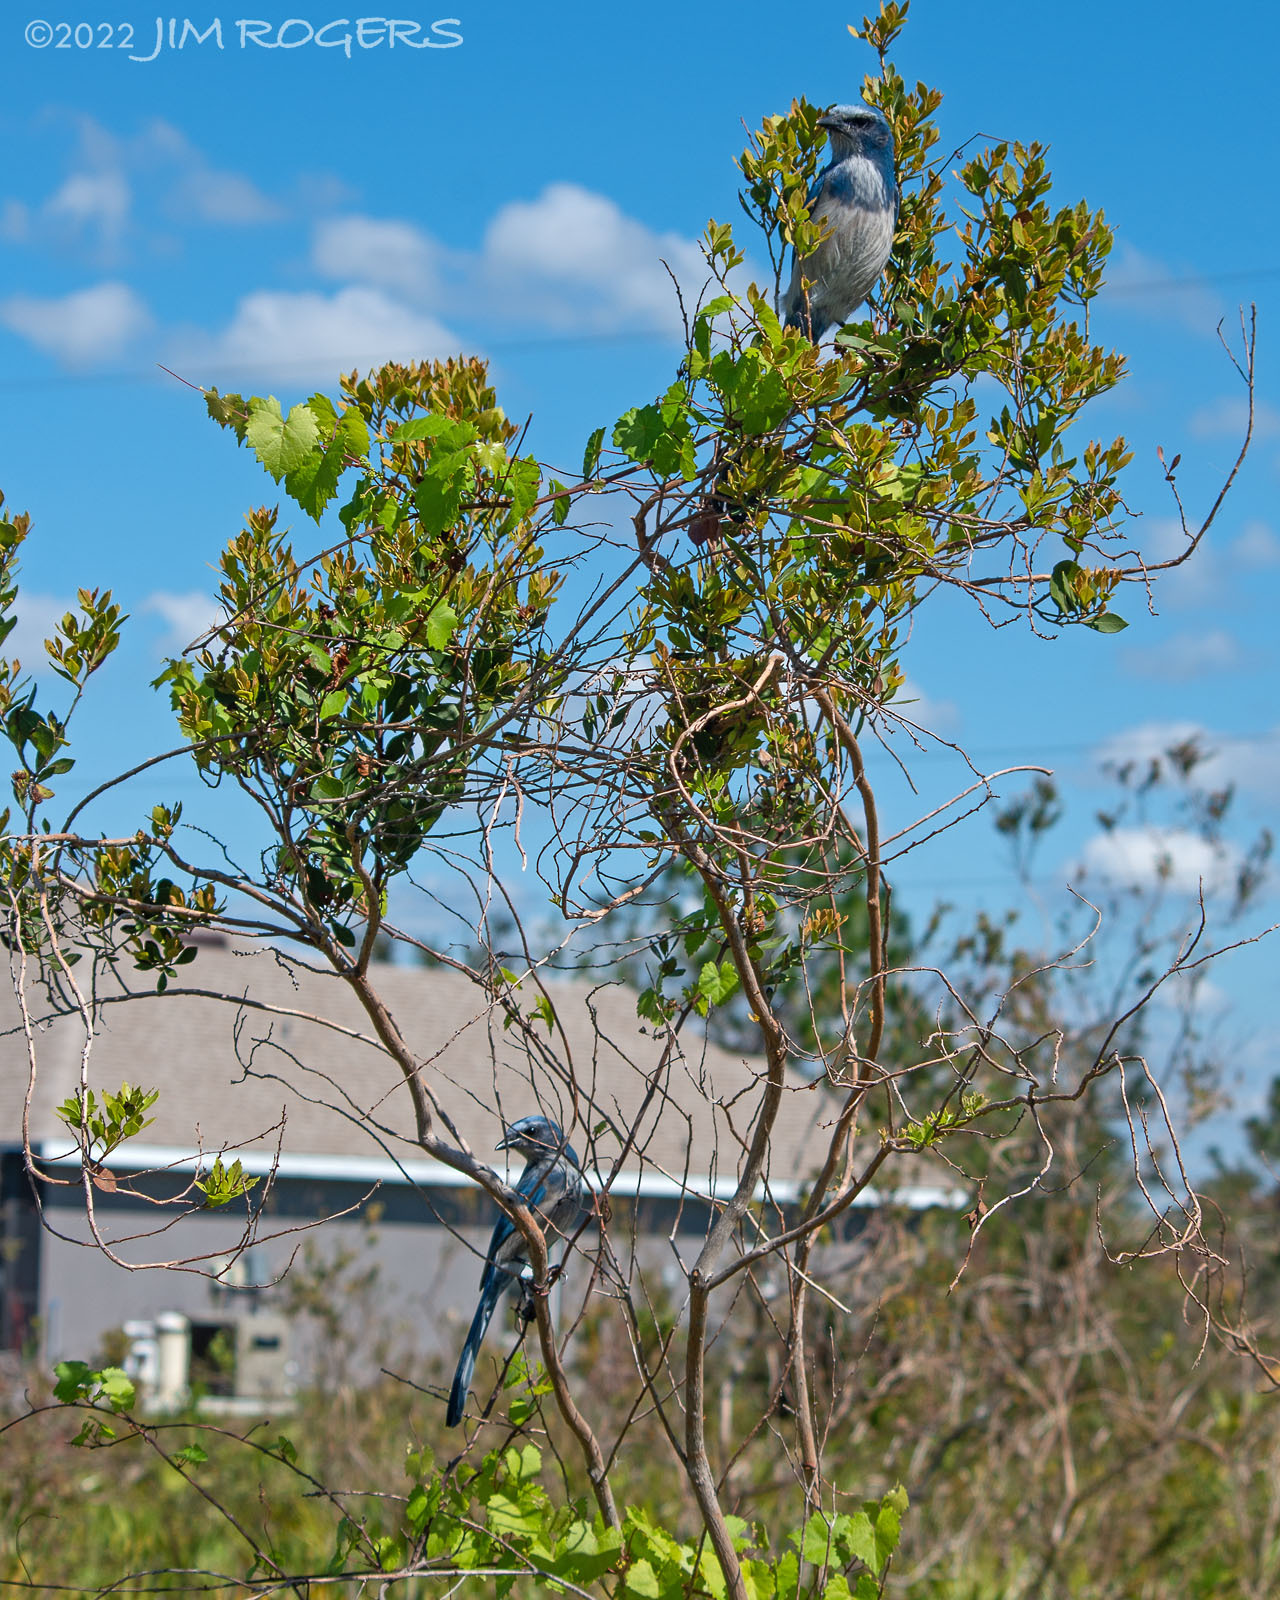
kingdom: Animalia
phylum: Chordata
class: Aves
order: Passeriformes
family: Corvidae
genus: Aphelocoma
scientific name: Aphelocoma coerulescens
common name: Florida scrub jay
